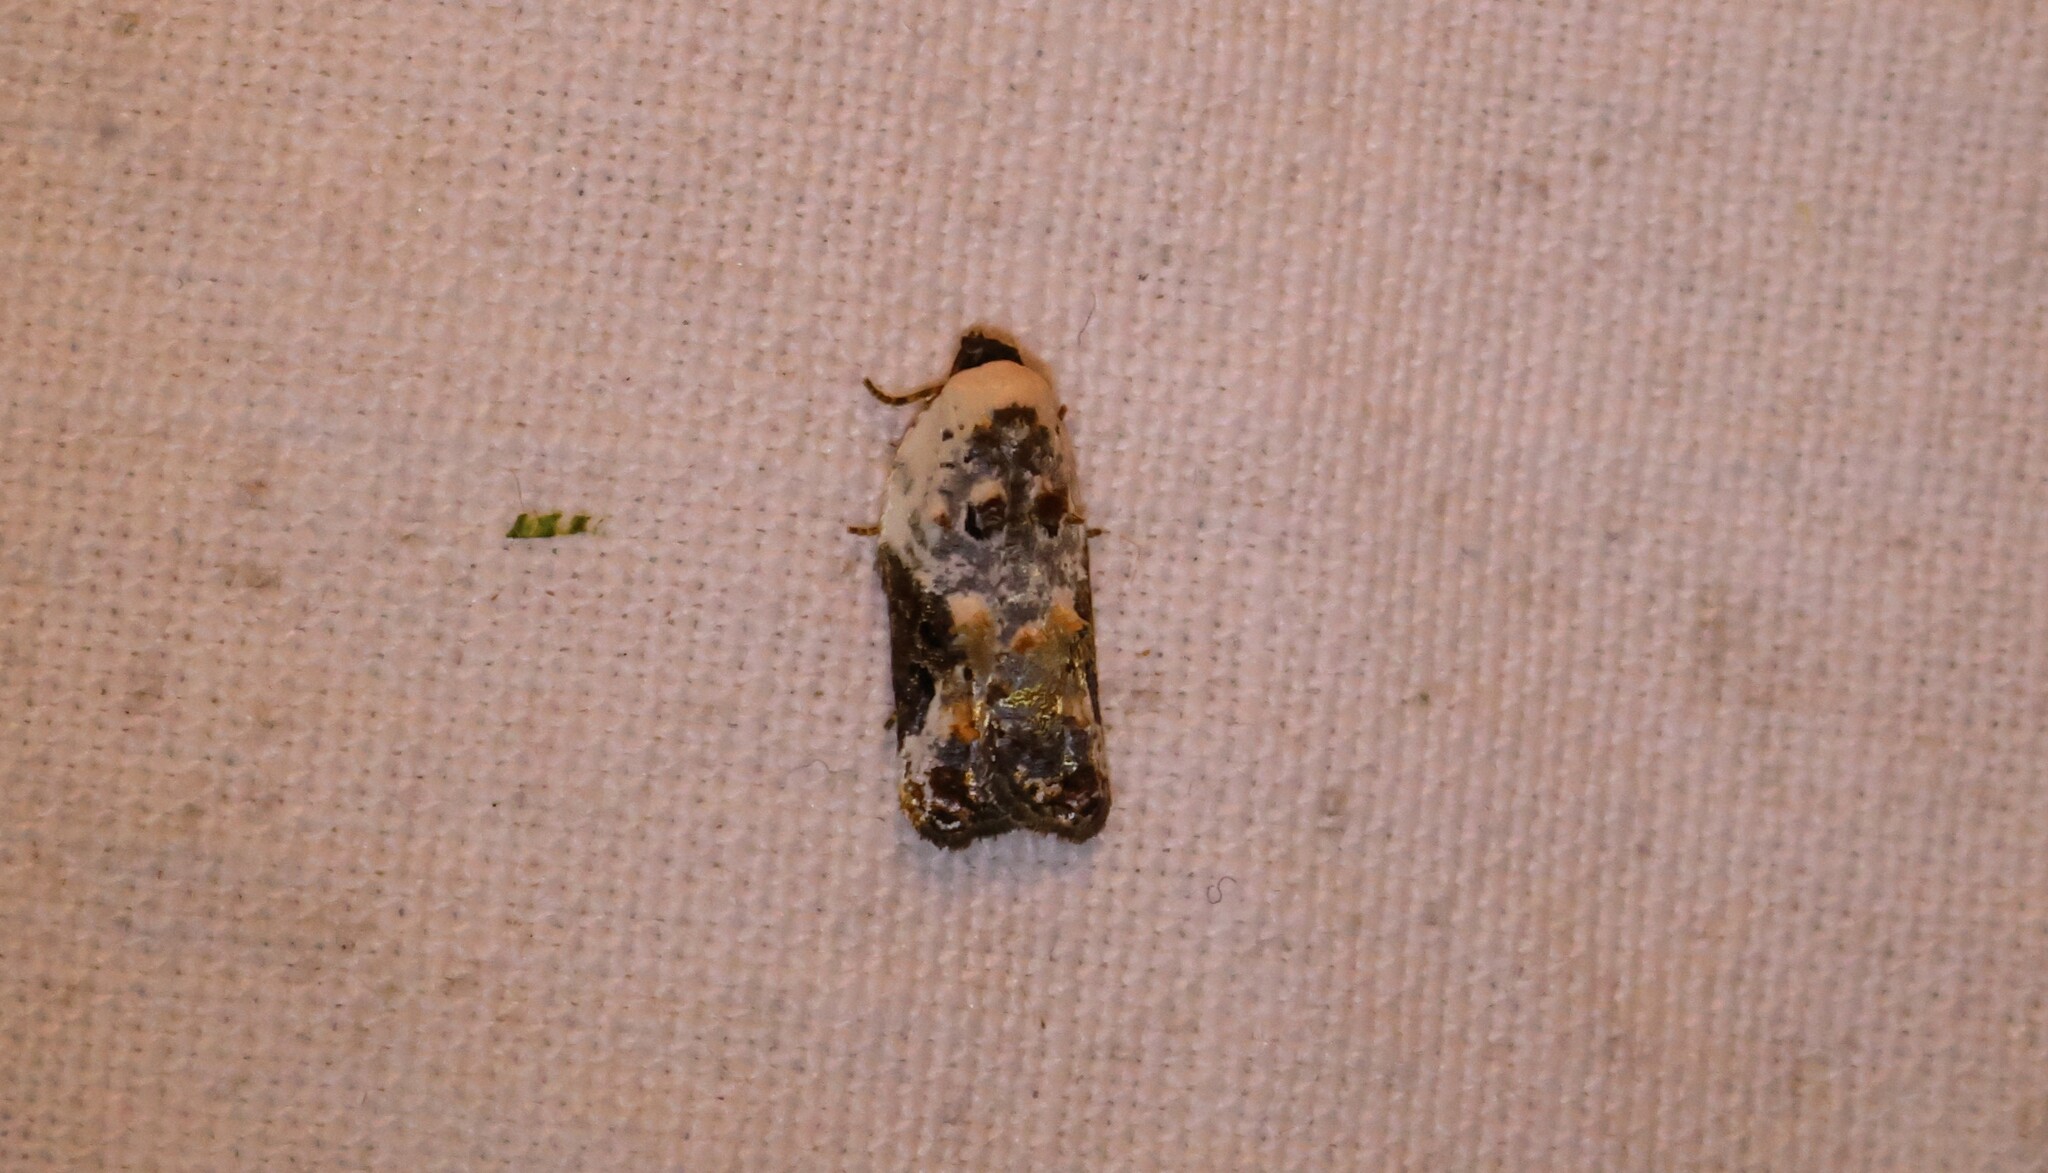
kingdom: Animalia
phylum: Arthropoda
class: Insecta
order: Lepidoptera
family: Tortricidae
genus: Acleris
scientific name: Acleris nivisellana
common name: Snowy-shouldered acleris moth
